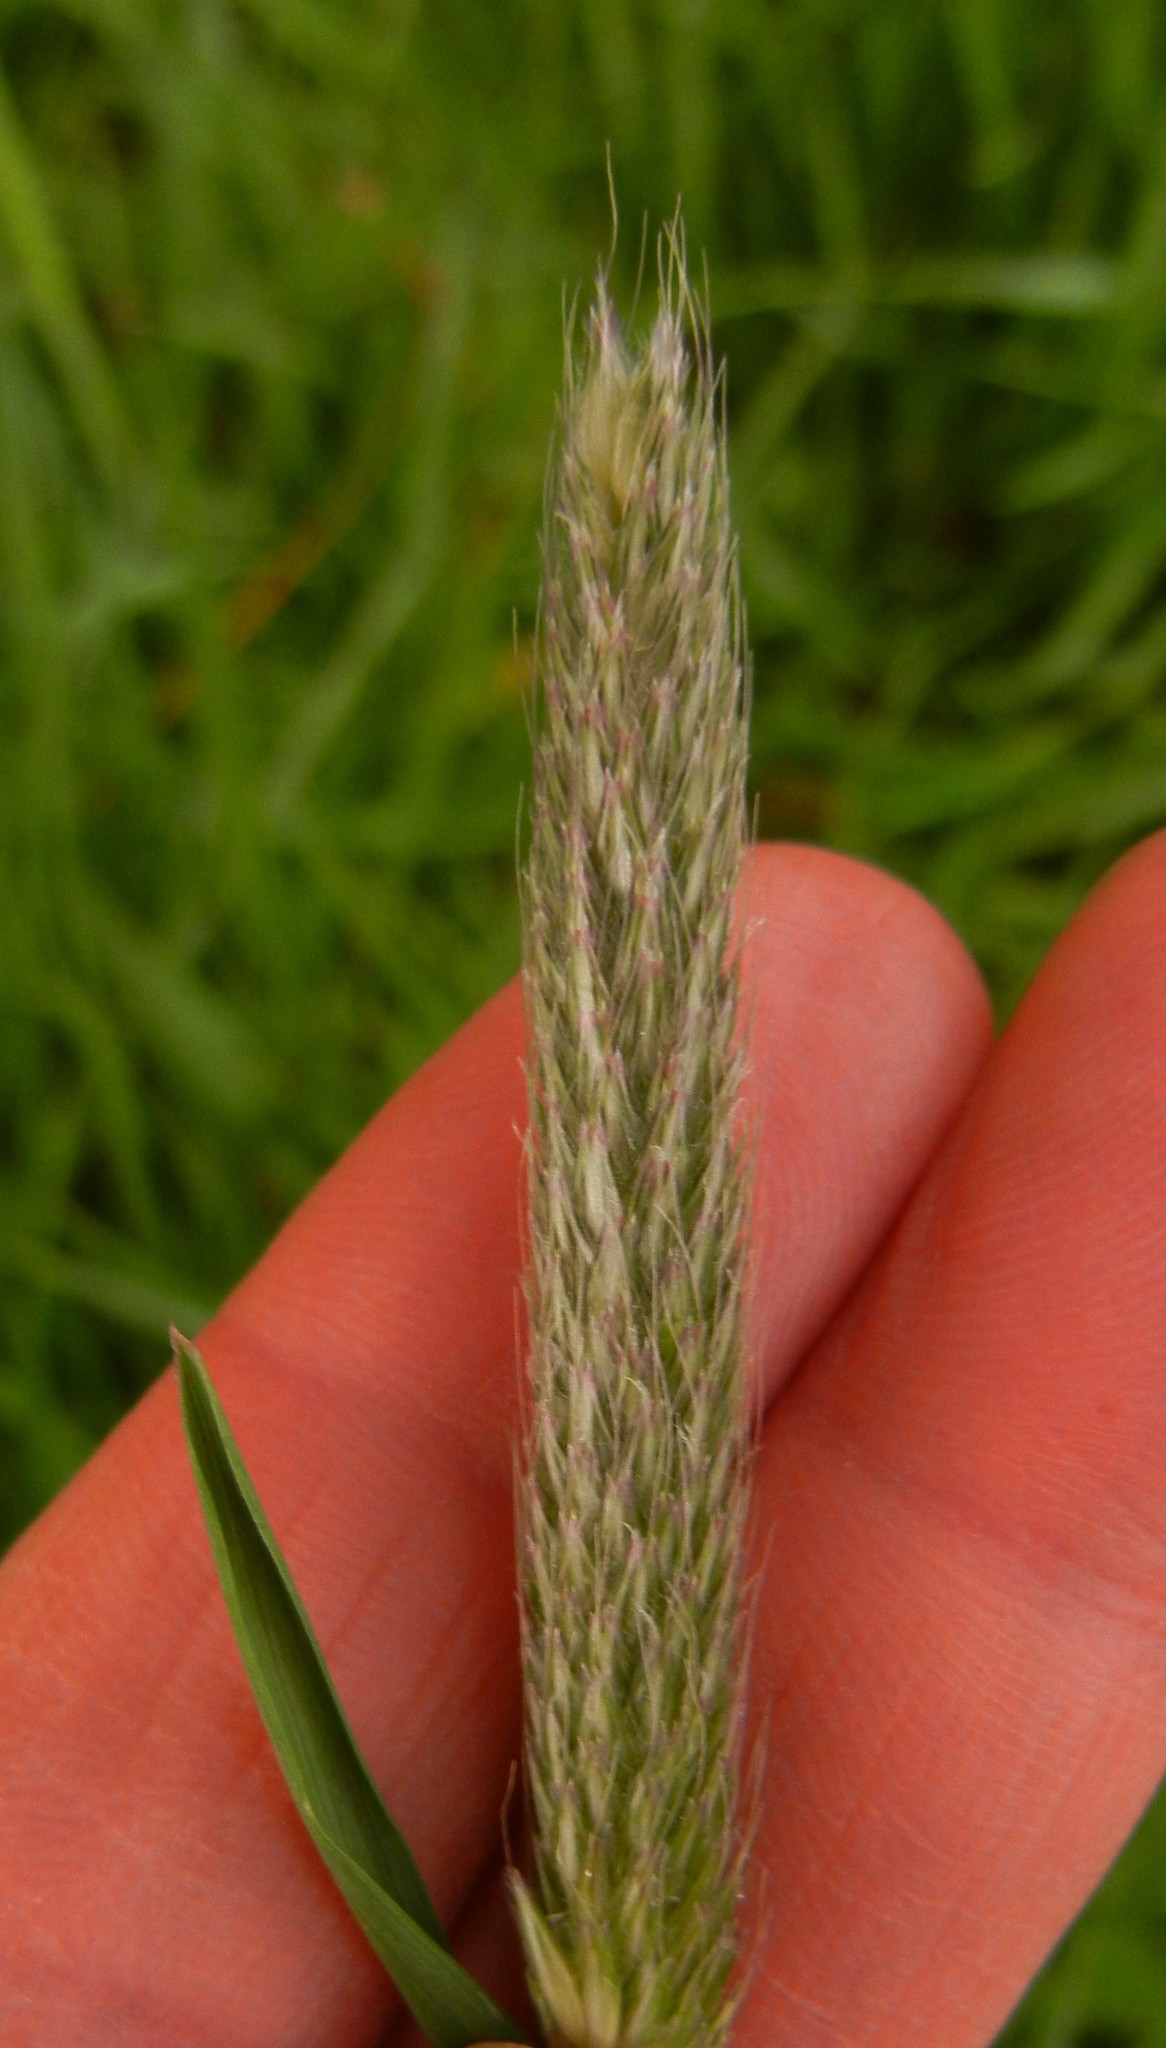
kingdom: Plantae
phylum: Tracheophyta
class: Liliopsida
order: Poales
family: Poaceae
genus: Alopecurus
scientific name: Alopecurus pratensis
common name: Meadow foxtail
